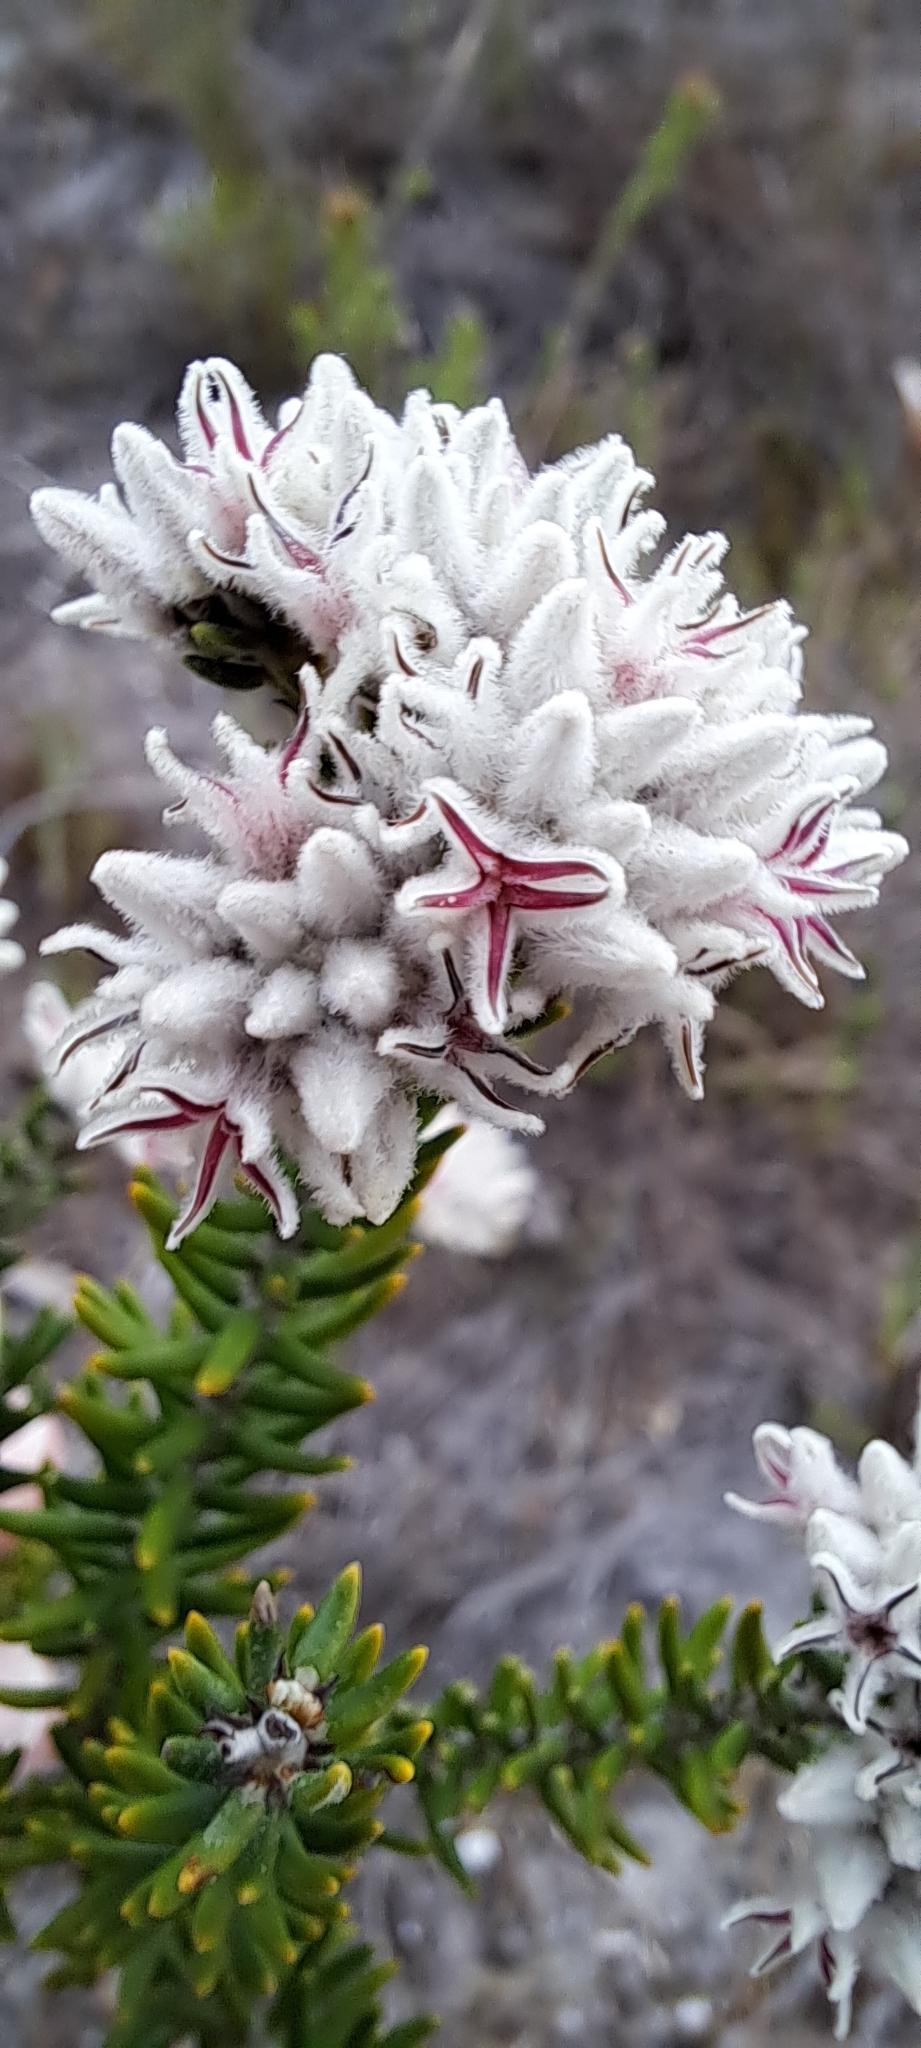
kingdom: Plantae
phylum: Tracheophyta
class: Magnoliopsida
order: Rosales
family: Rhamnaceae
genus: Trichocephalus
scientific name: Trichocephalus stipularis
